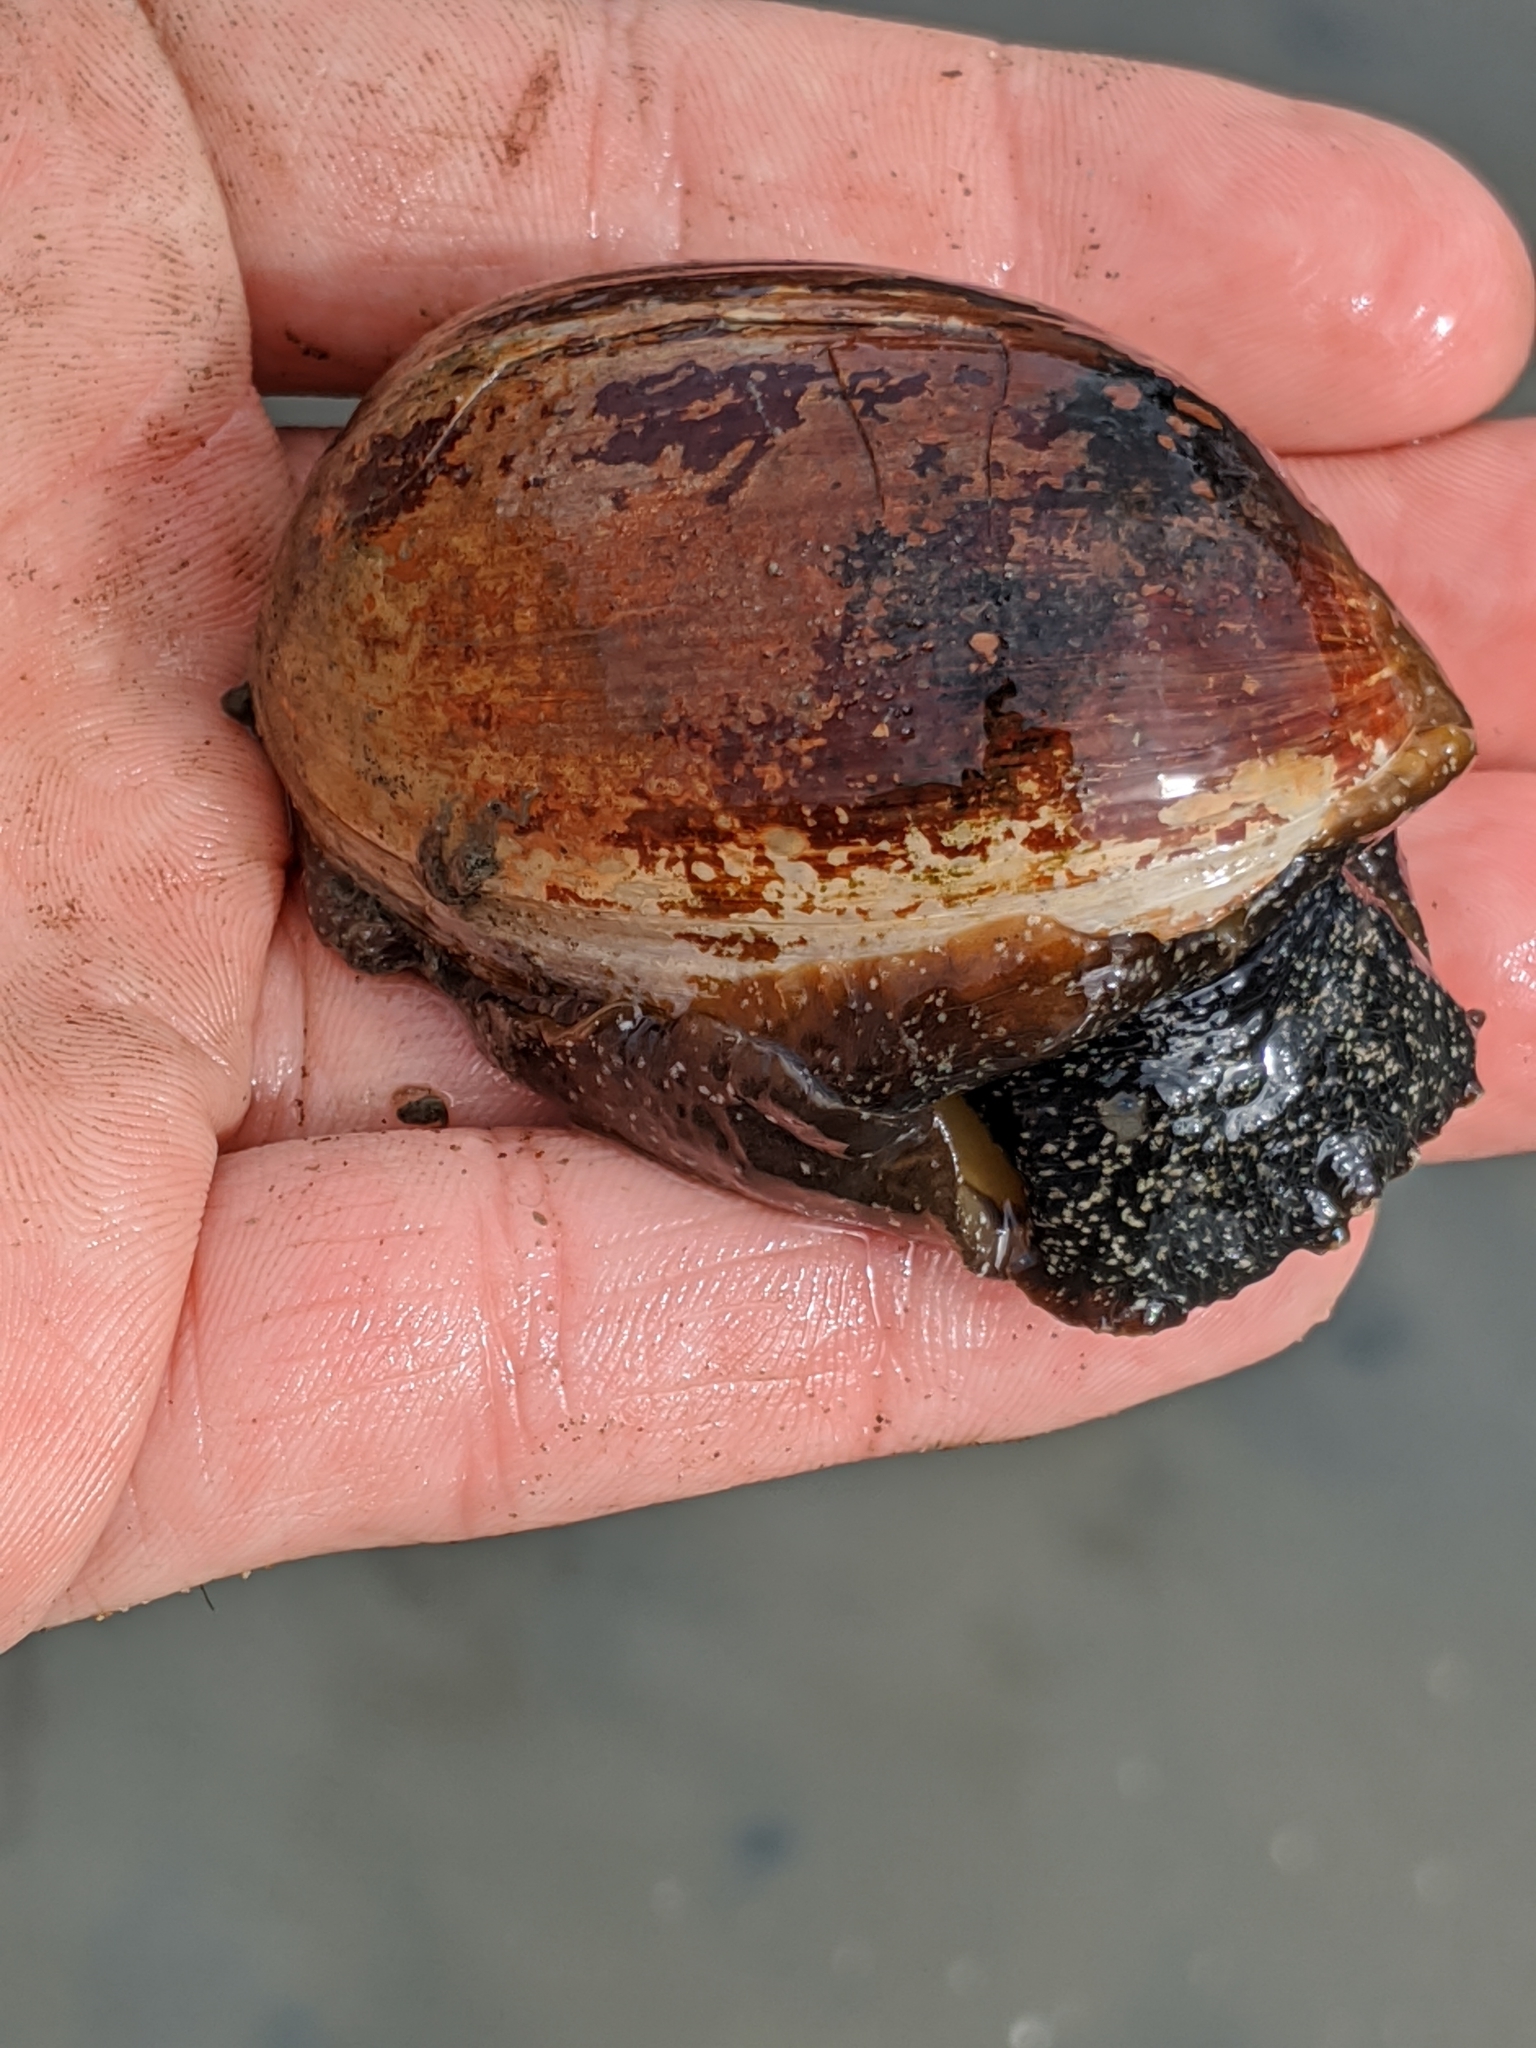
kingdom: Animalia
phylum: Mollusca
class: Gastropoda
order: Cephalaspidea
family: Bullidae
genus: Bulla
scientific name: Bulla gouldiana
